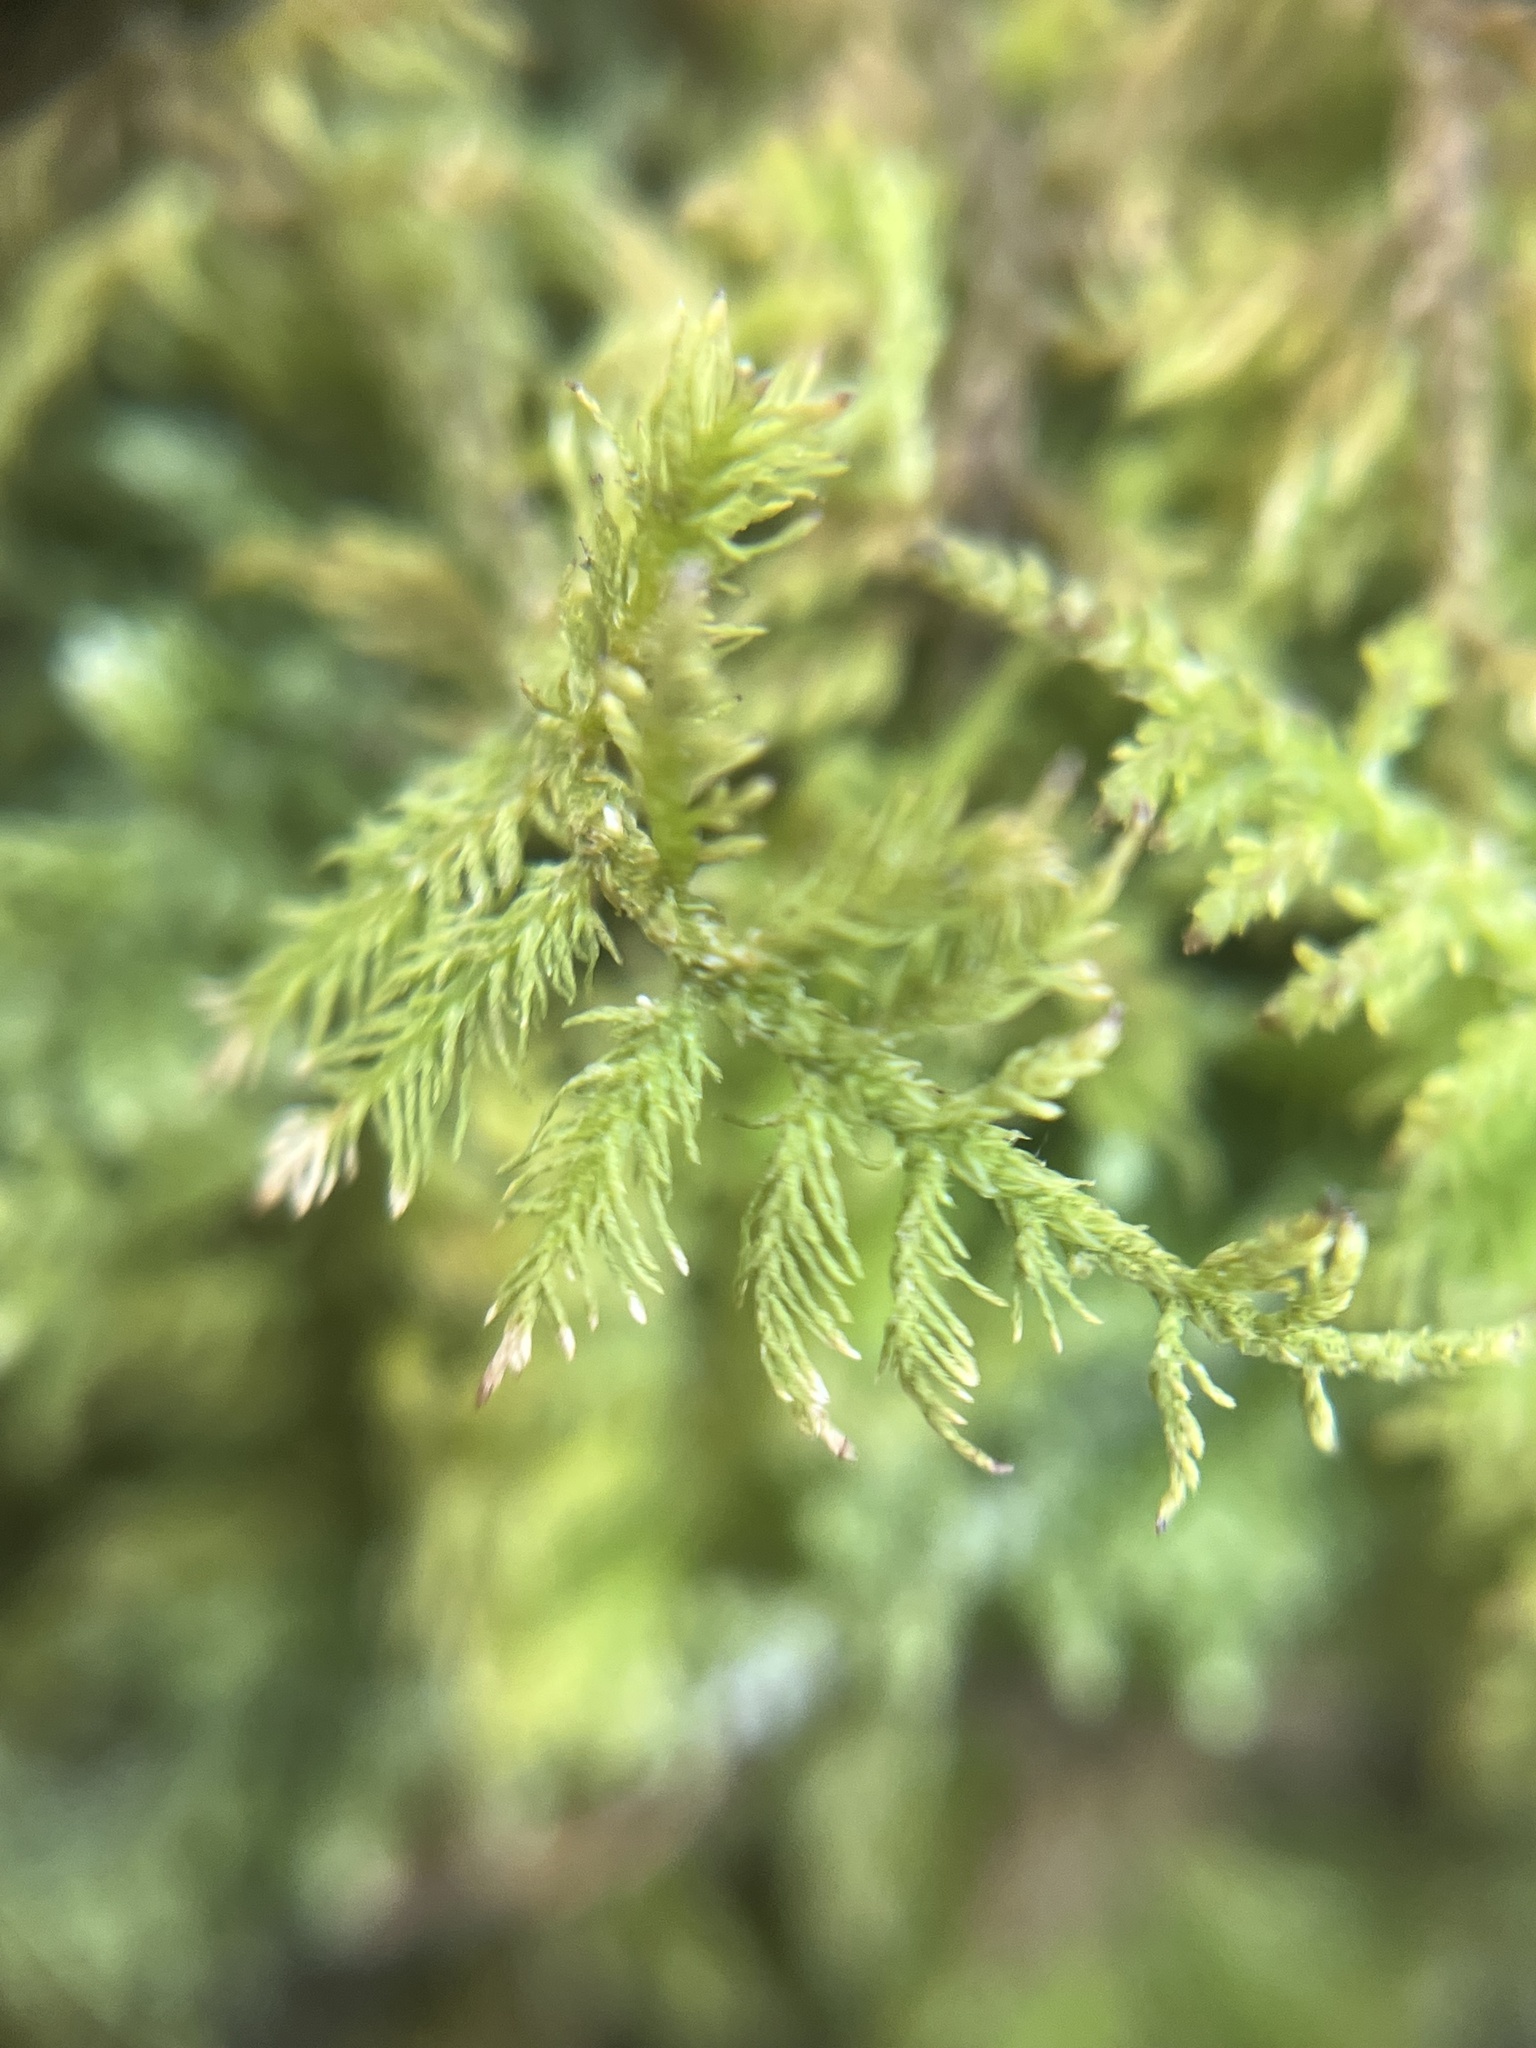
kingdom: Plantae
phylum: Bryophyta
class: Bryopsida
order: Hypnales
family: Thuidiaceae
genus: Thuidium
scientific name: Thuidium delicatulum
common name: Delicate fern moss
